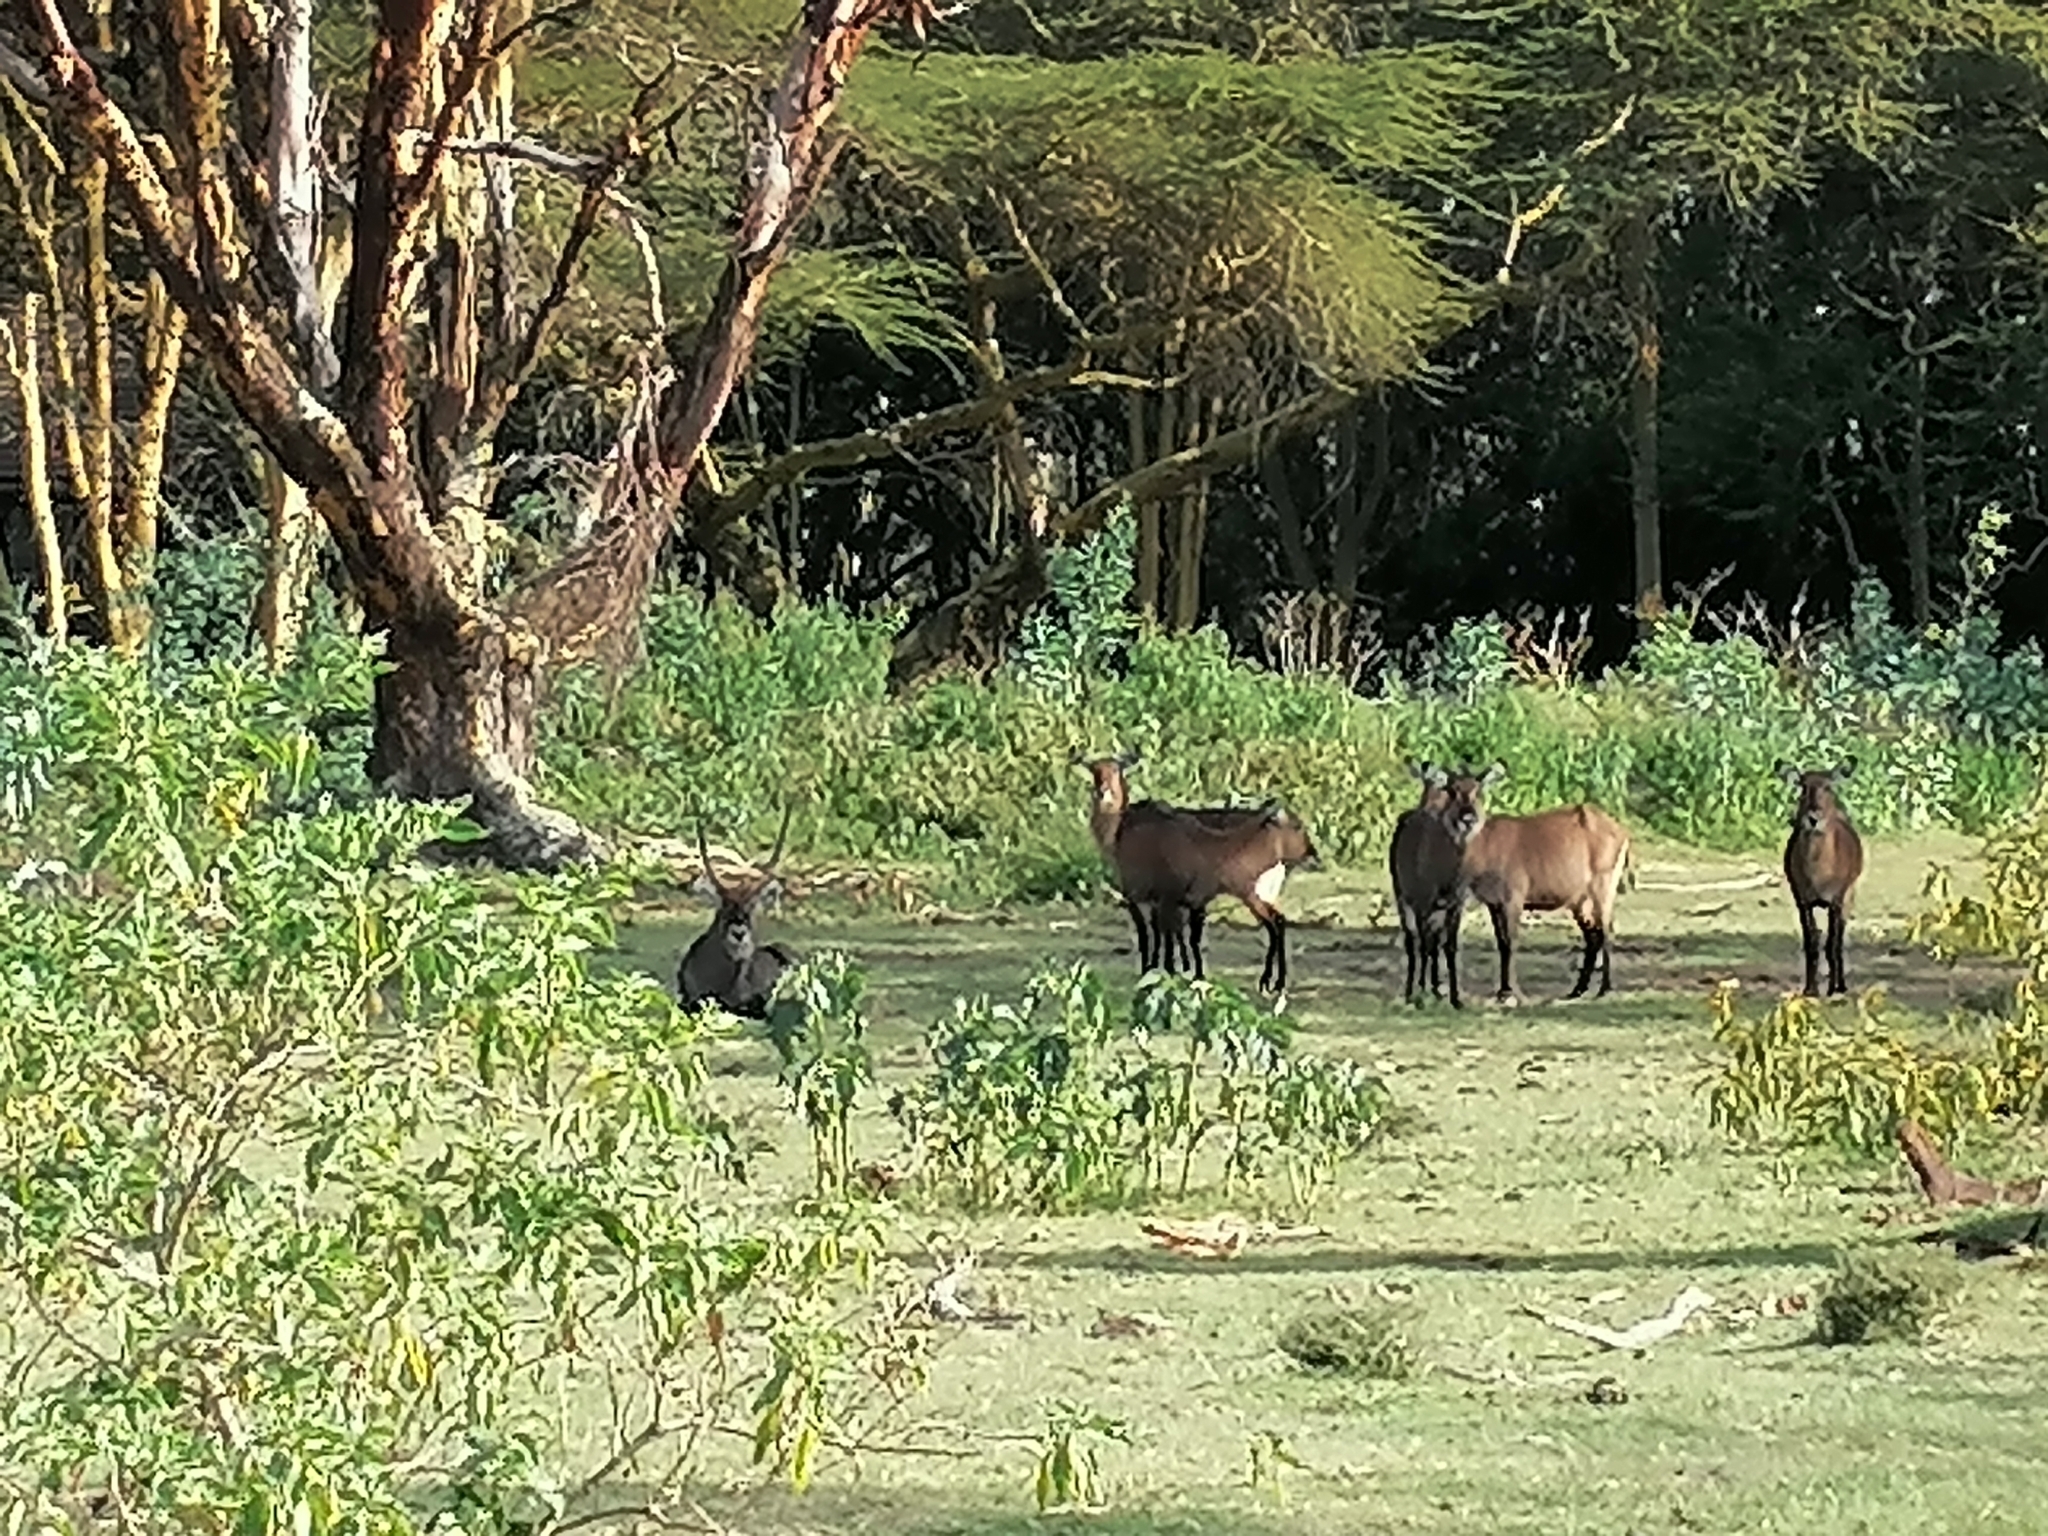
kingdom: Animalia
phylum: Chordata
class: Mammalia
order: Artiodactyla
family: Bovidae
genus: Kobus
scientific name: Kobus ellipsiprymnus
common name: Waterbuck
